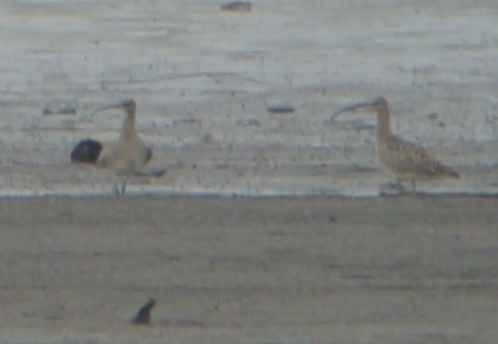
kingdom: Animalia
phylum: Chordata
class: Aves
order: Charadriiformes
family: Scolopacidae
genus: Numenius
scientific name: Numenius americanus
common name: Long-billed curlew
